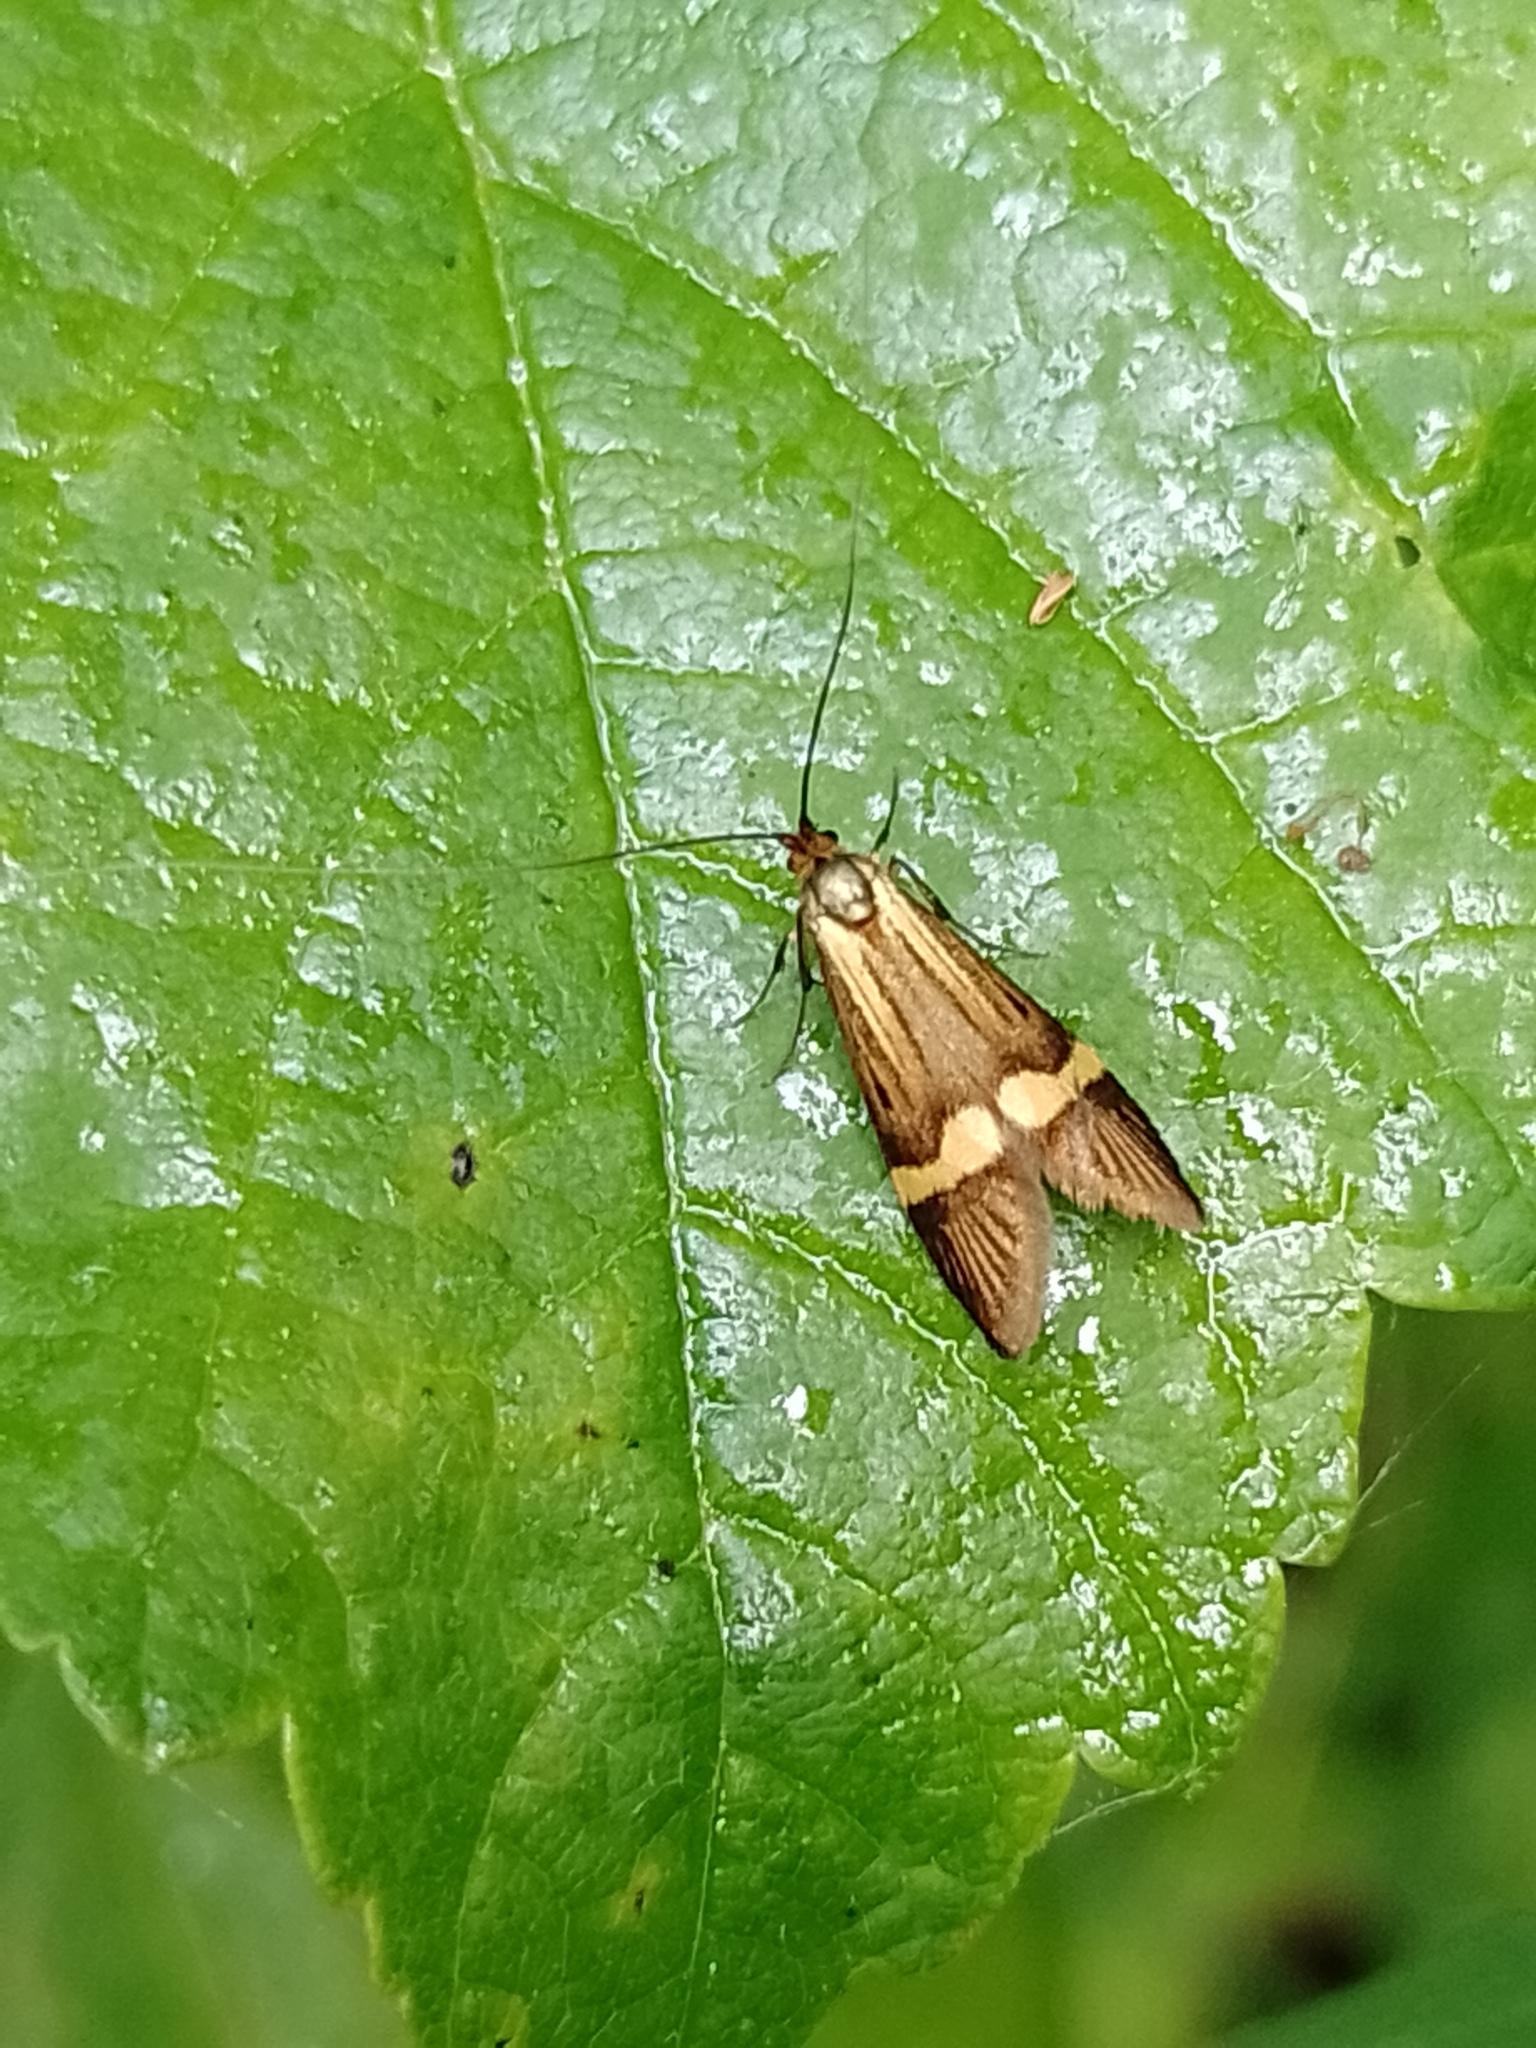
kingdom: Animalia
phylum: Arthropoda
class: Insecta
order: Lepidoptera
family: Adelidae
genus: Nemophora
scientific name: Nemophora degeerella
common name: Yellow-barred long-horn
